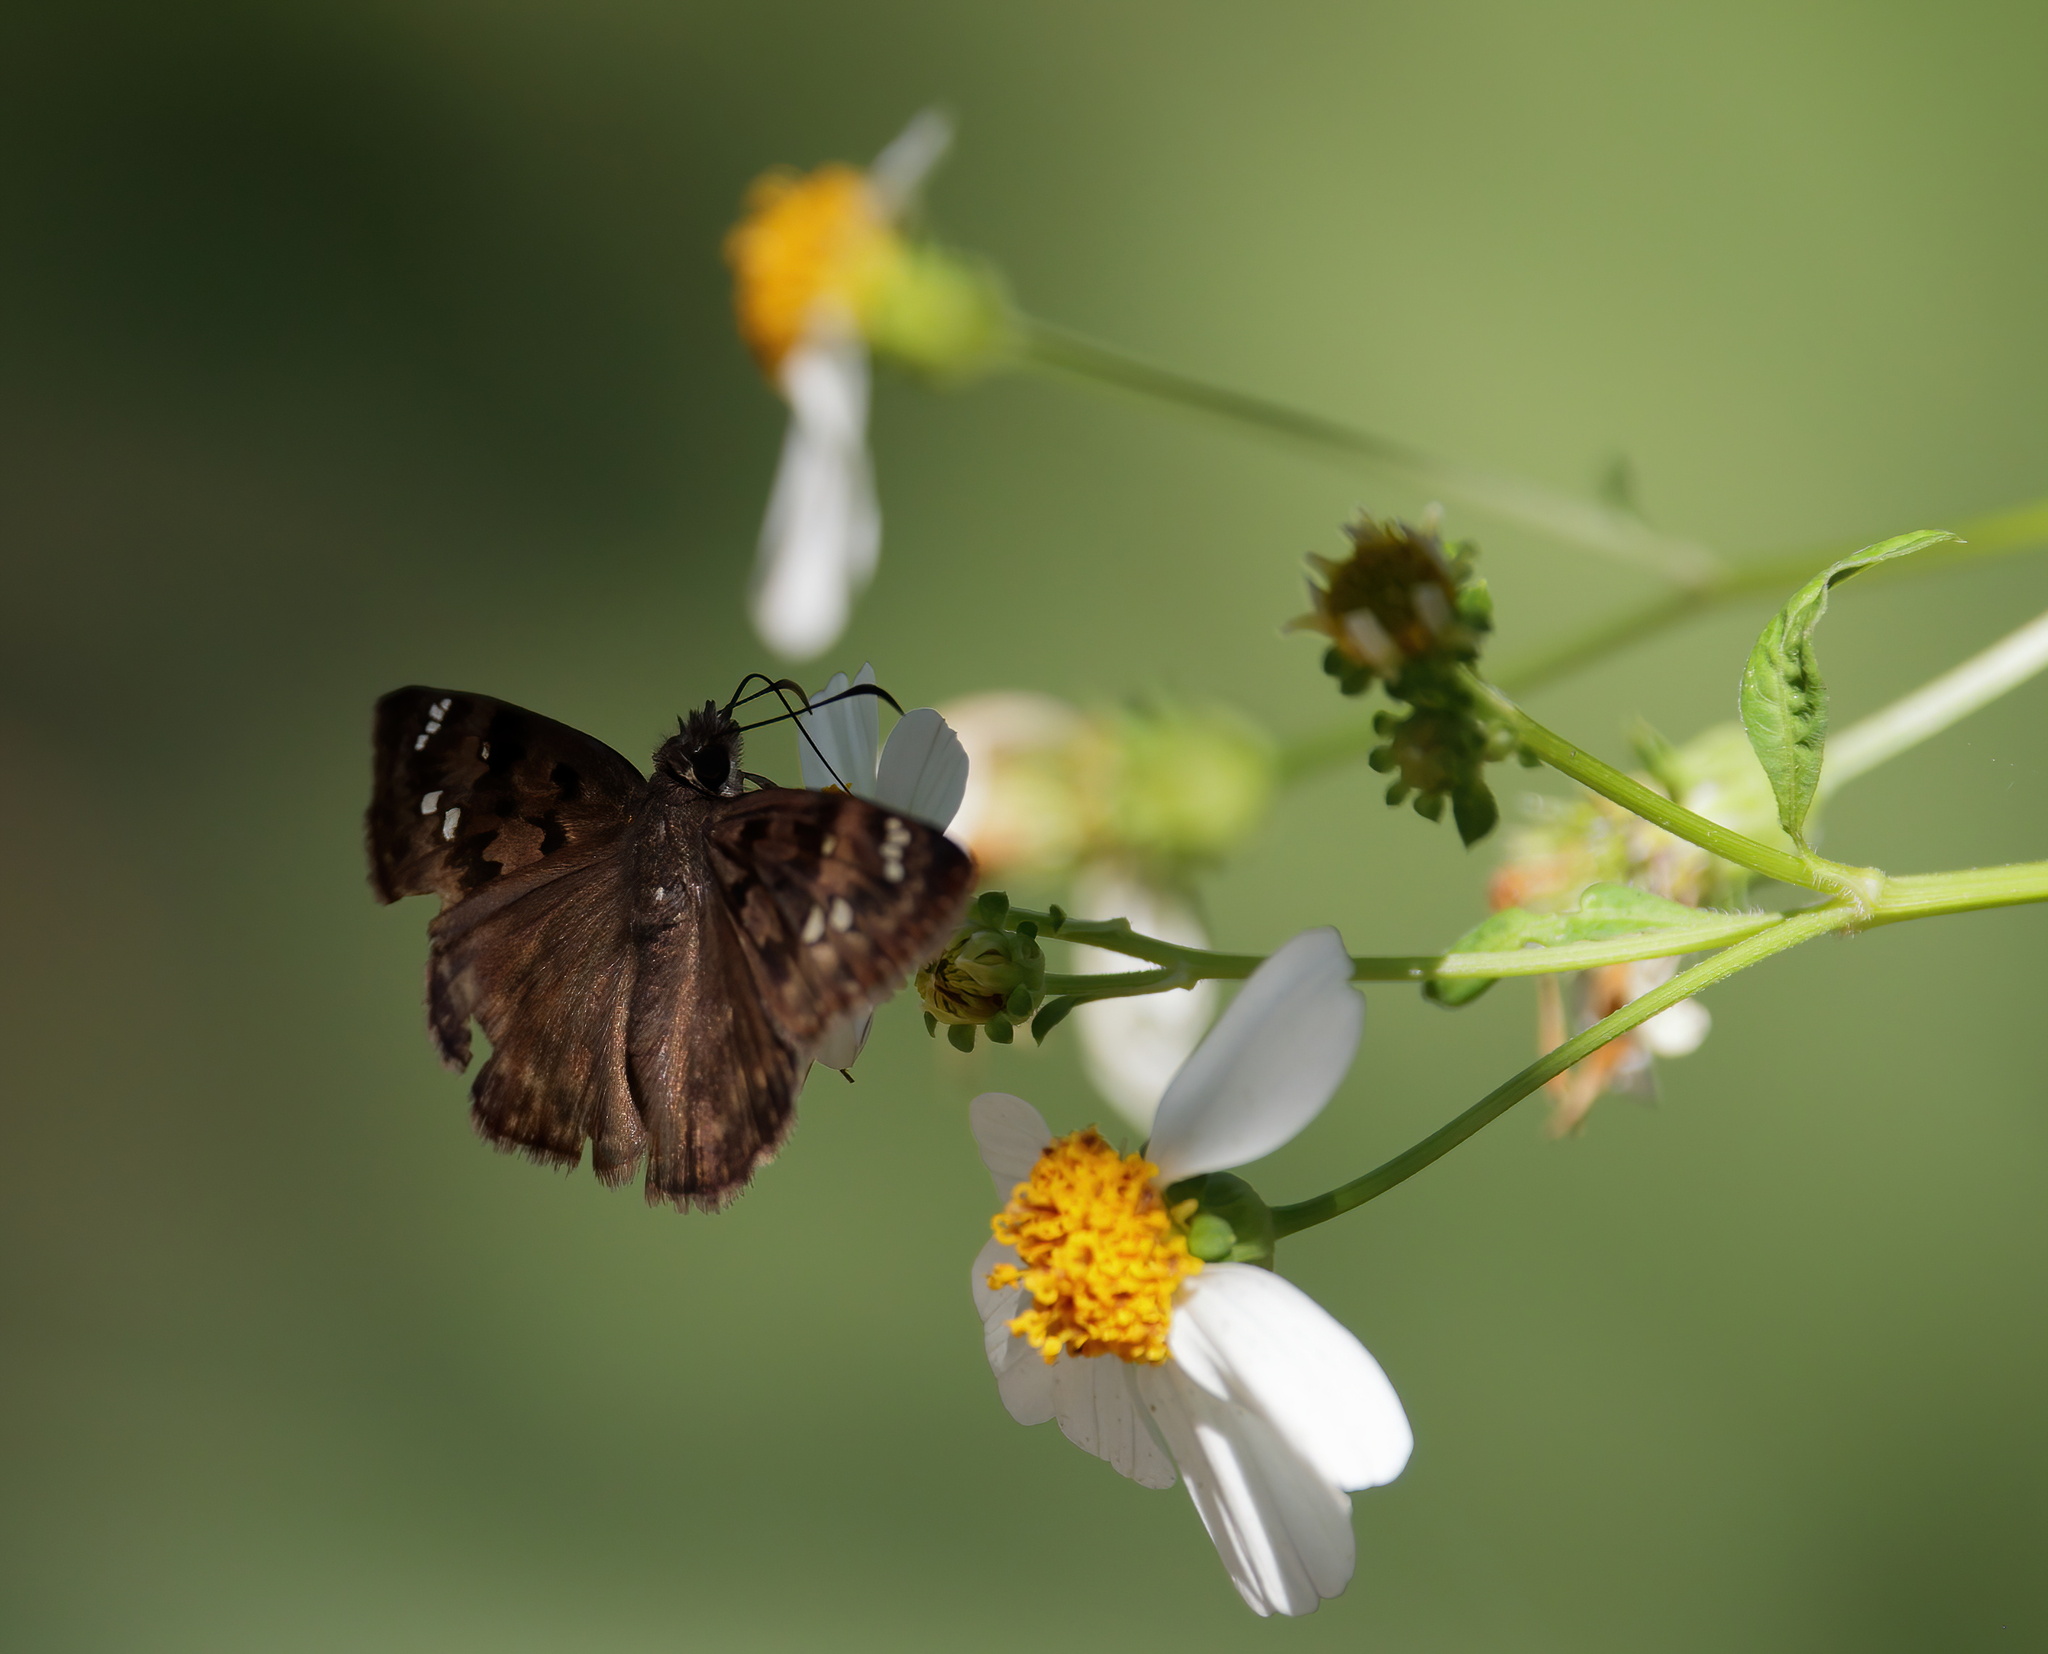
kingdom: Animalia
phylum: Arthropoda
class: Insecta
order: Lepidoptera
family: Hesperiidae
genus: Erynnis
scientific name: Erynnis horatius
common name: Horace's duskywing
